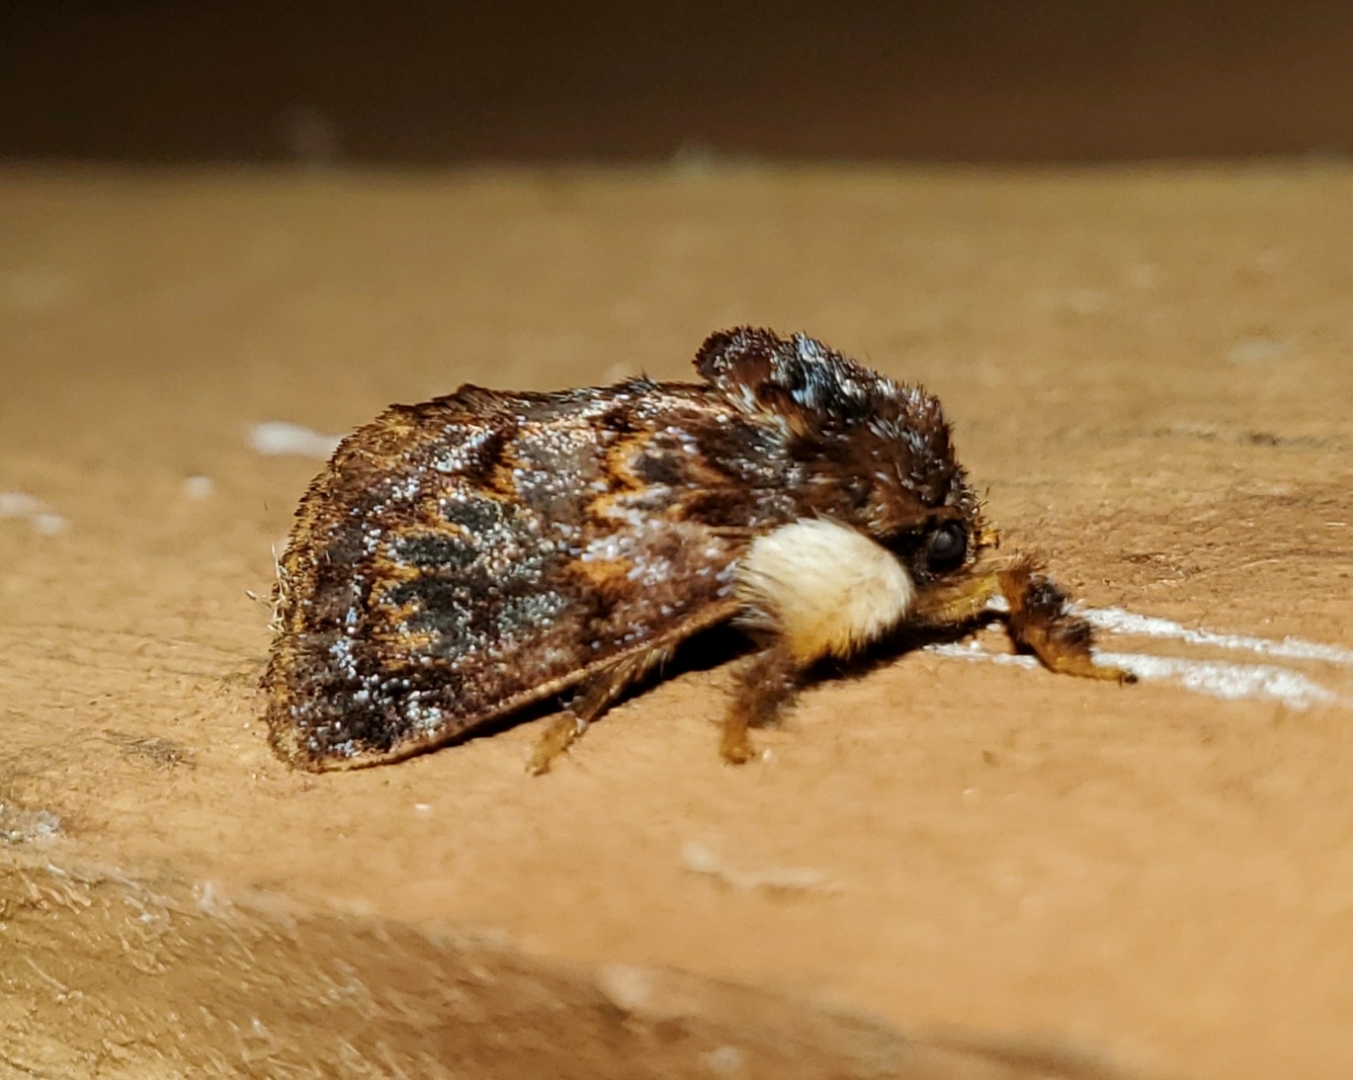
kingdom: Animalia
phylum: Arthropoda
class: Insecta
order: Lepidoptera
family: Limacodidae
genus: Phobetron
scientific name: Phobetron pithecium
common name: Hag moth
